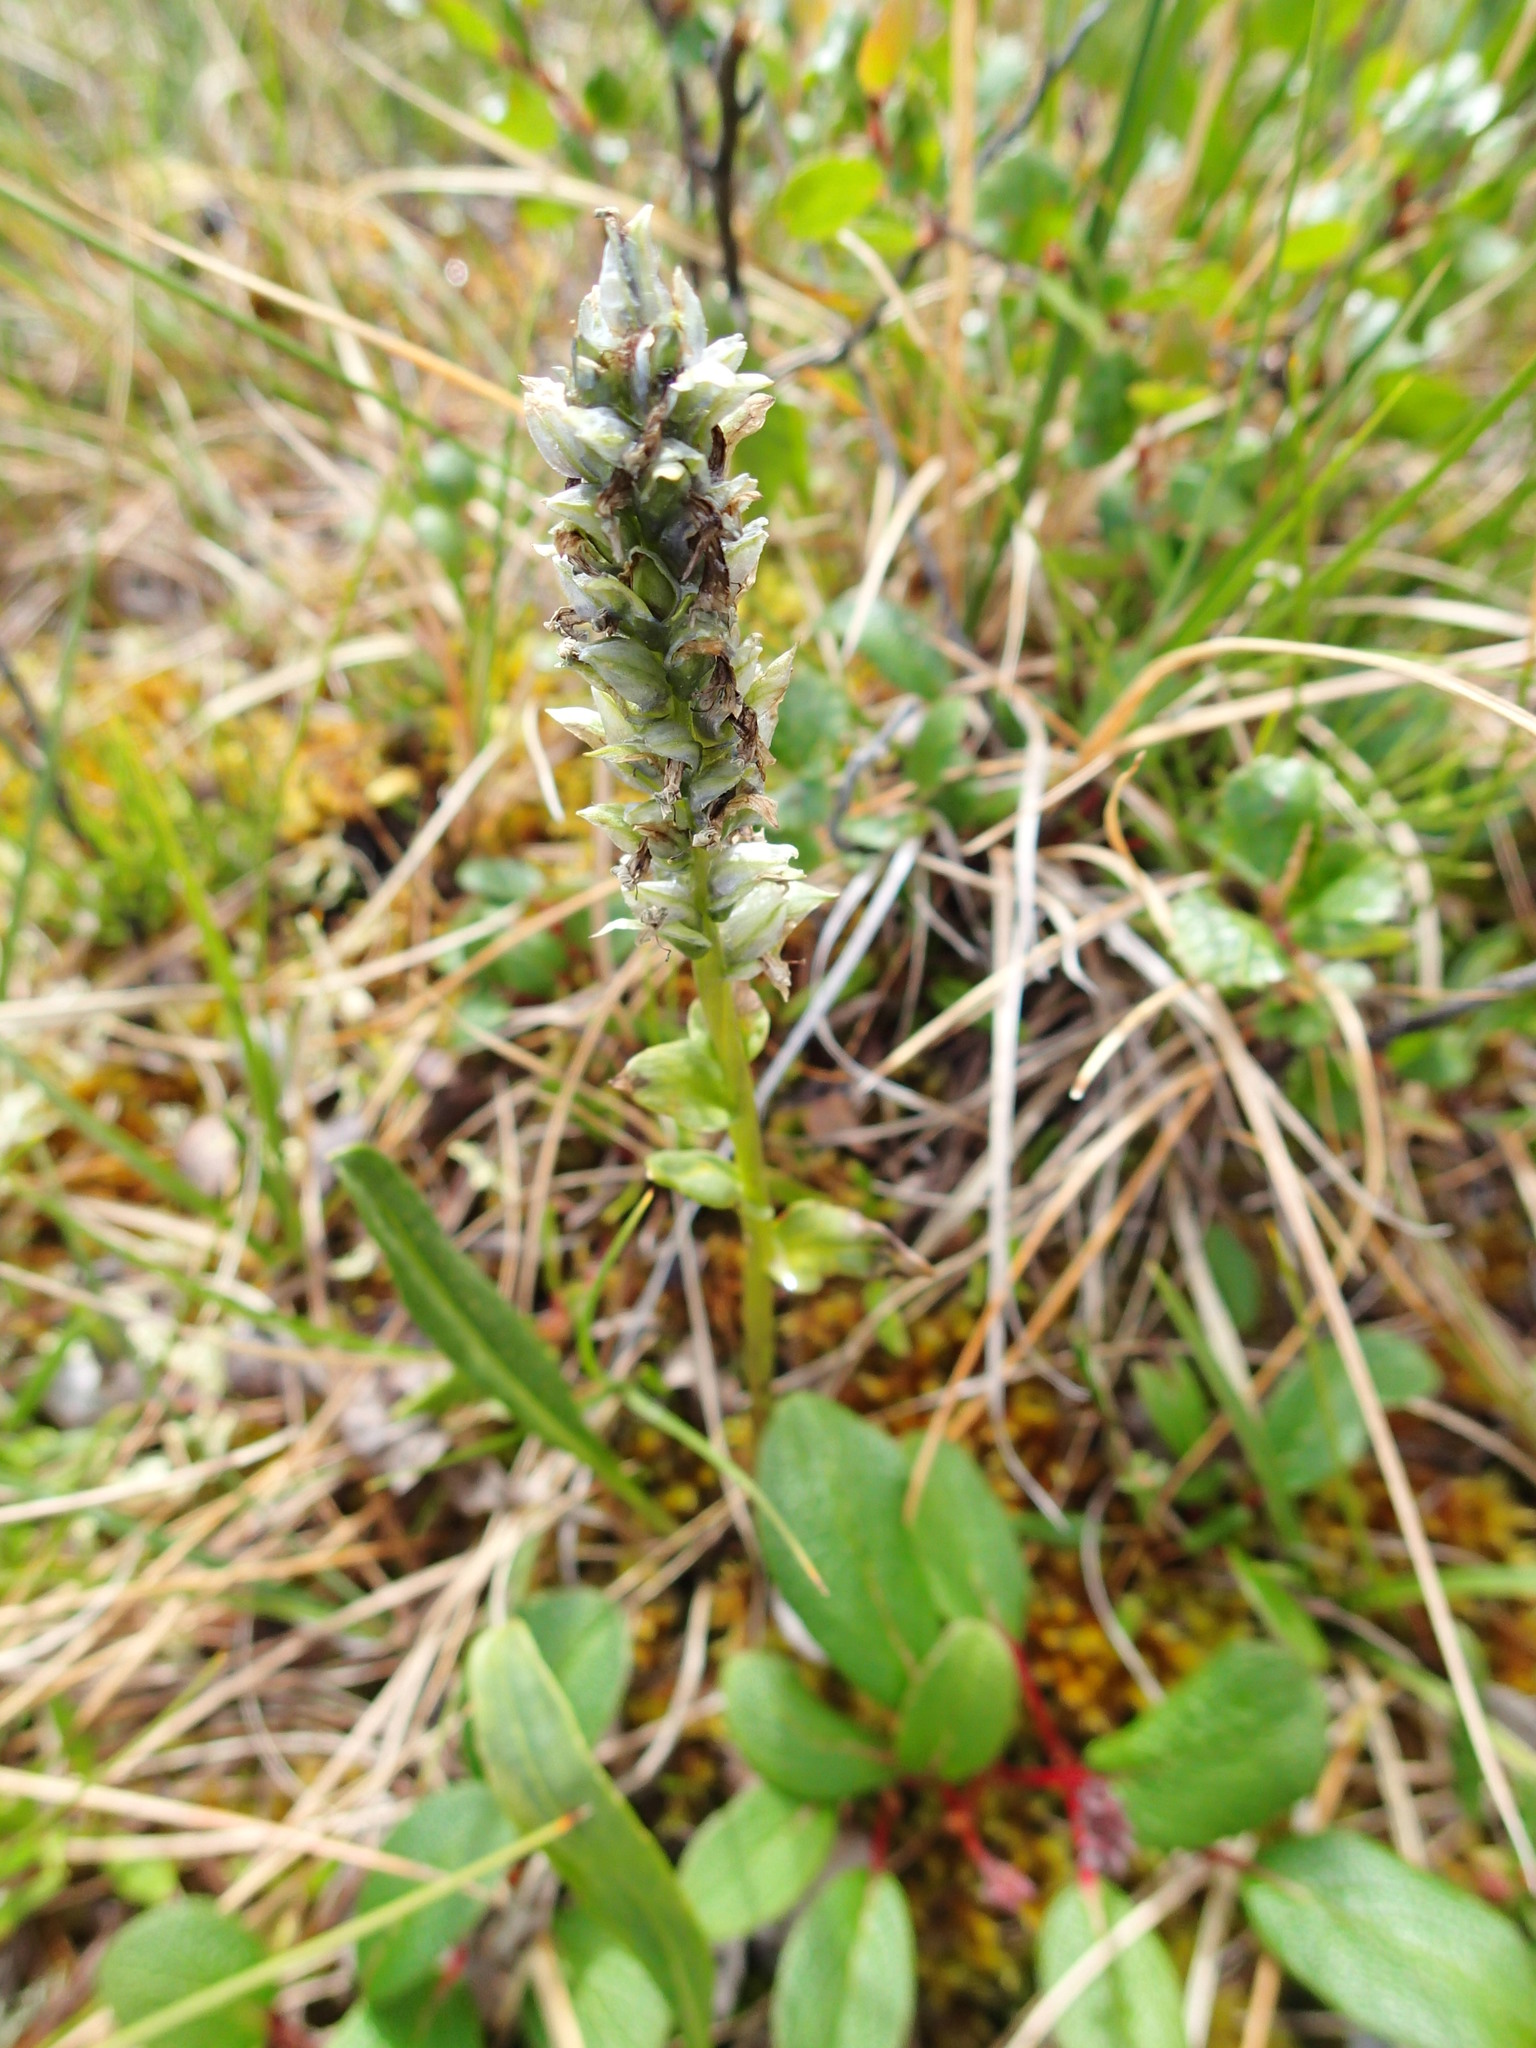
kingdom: Plantae
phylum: Tracheophyta
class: Magnoliopsida
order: Lamiales
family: Plantaginaceae
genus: Lagotis
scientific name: Lagotis glauca
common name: Glaucous weaselsnout
